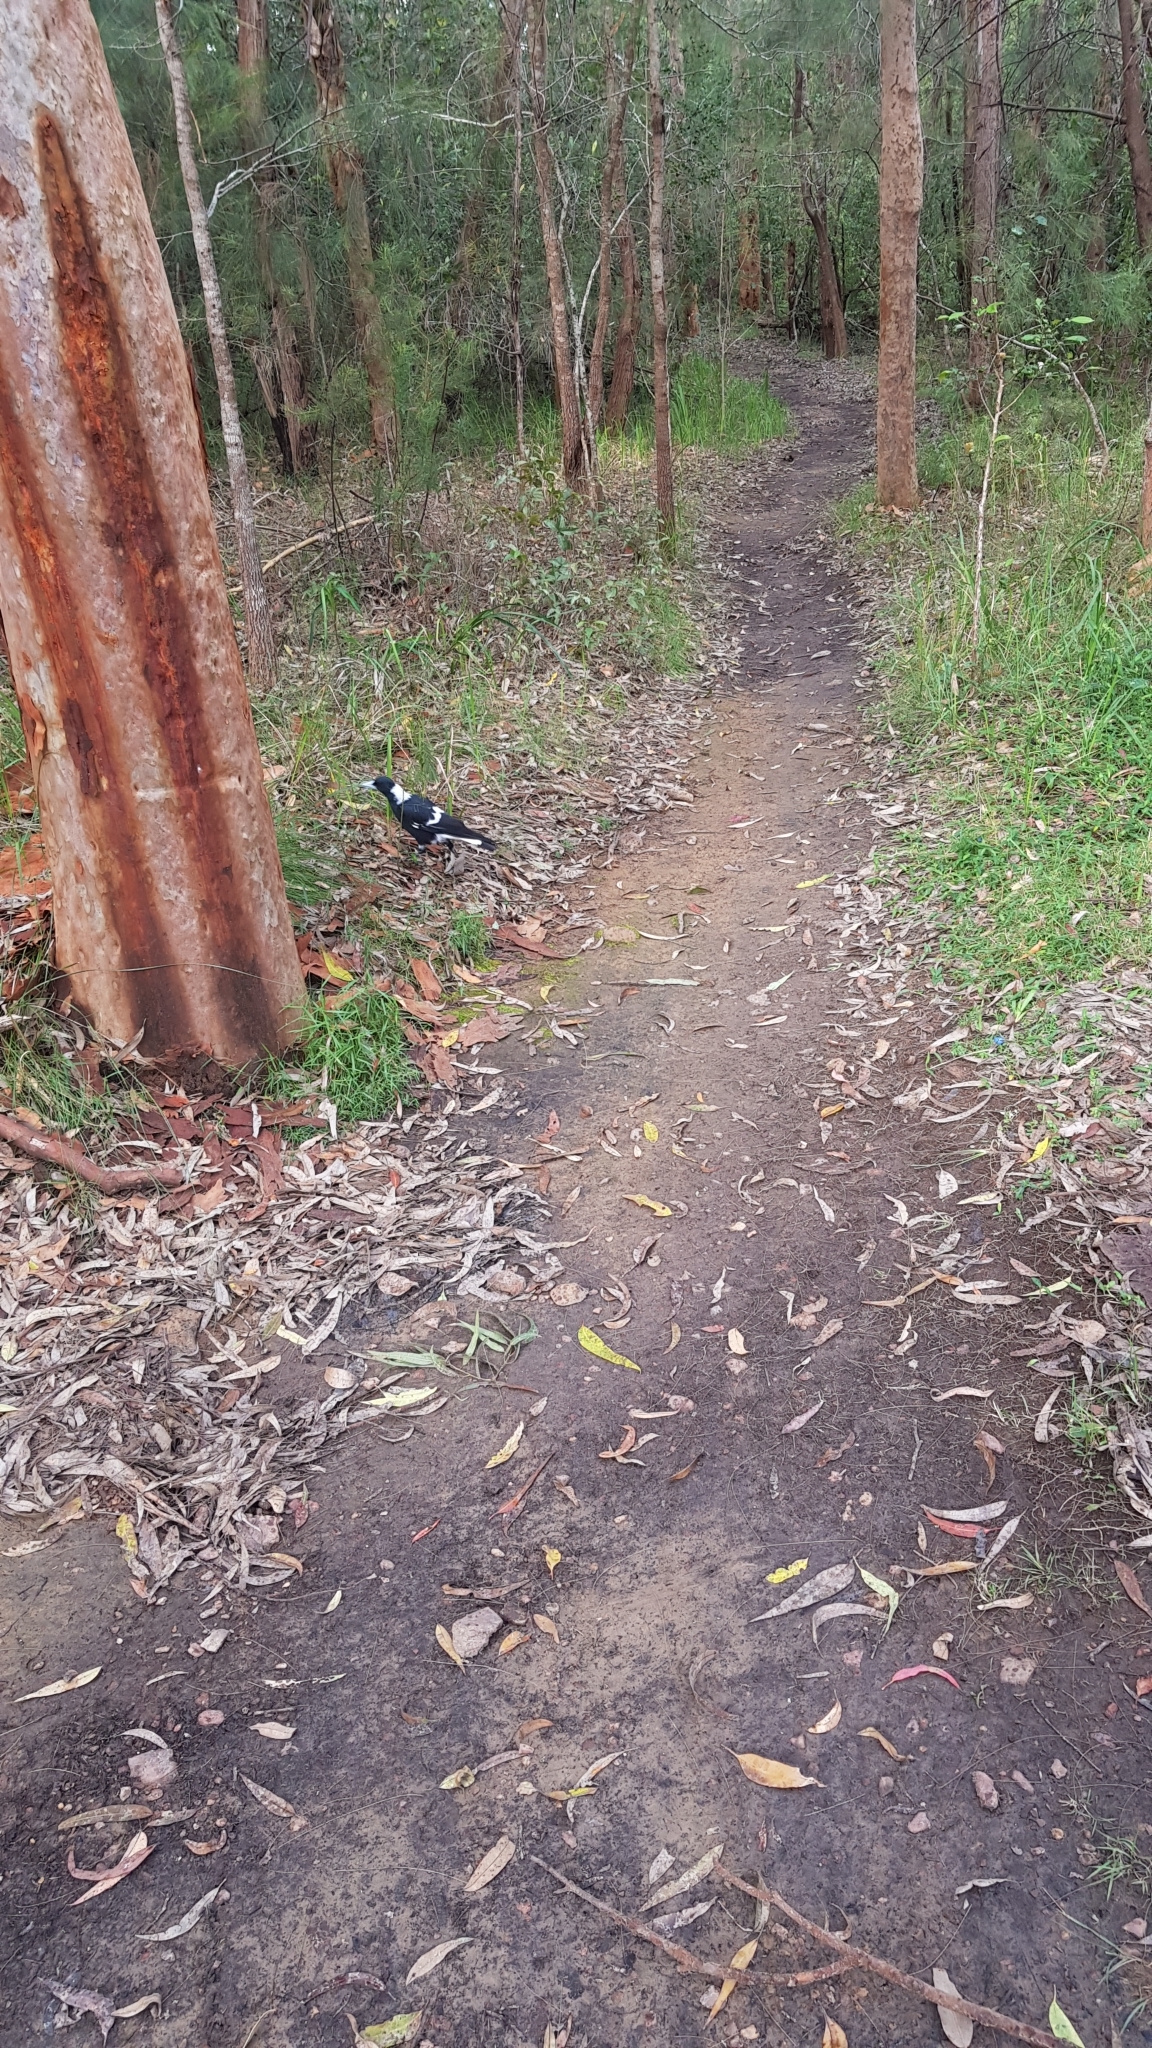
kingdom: Animalia
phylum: Chordata
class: Aves
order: Passeriformes
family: Cracticidae
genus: Gymnorhina
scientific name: Gymnorhina tibicen
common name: Australian magpie
